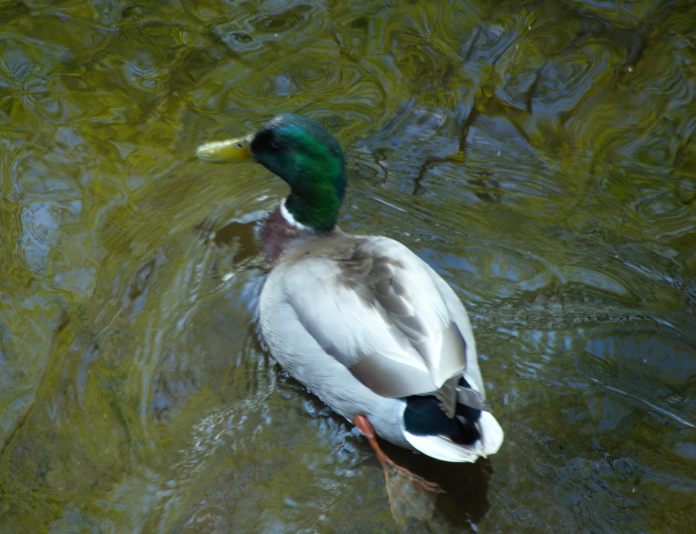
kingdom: Animalia
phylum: Chordata
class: Aves
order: Anseriformes
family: Anatidae
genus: Anas
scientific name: Anas platyrhynchos
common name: Mallard
